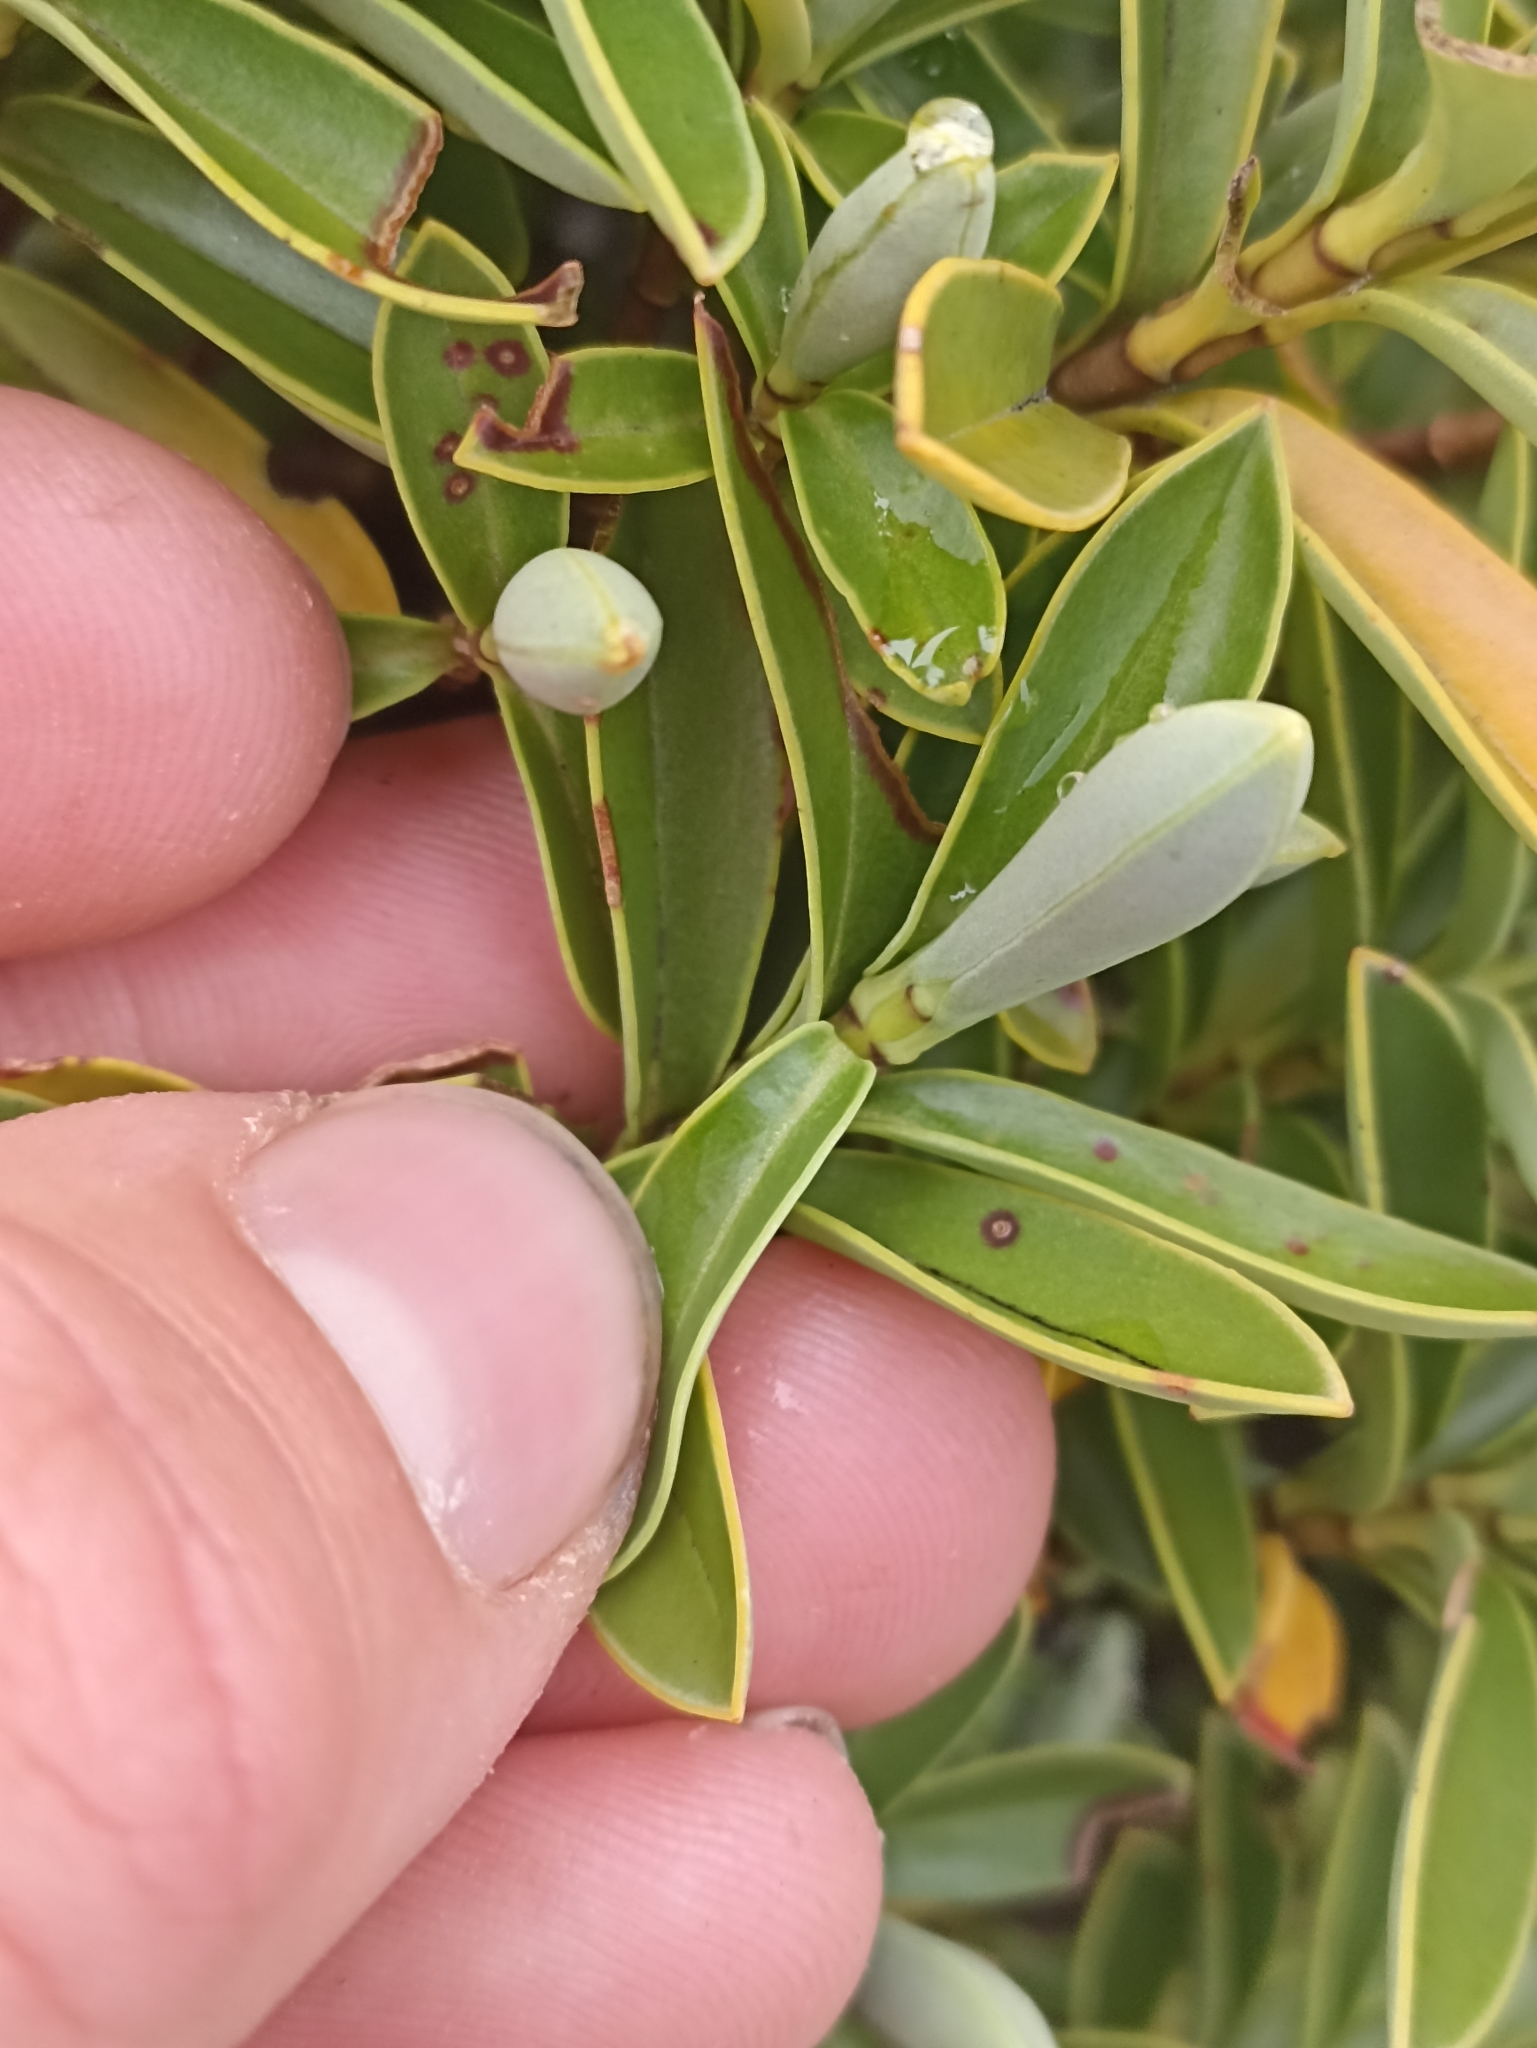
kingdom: Plantae
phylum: Tracheophyta
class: Magnoliopsida
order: Lamiales
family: Plantaginaceae
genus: Veronica
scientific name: Veronica cryptomorpha
